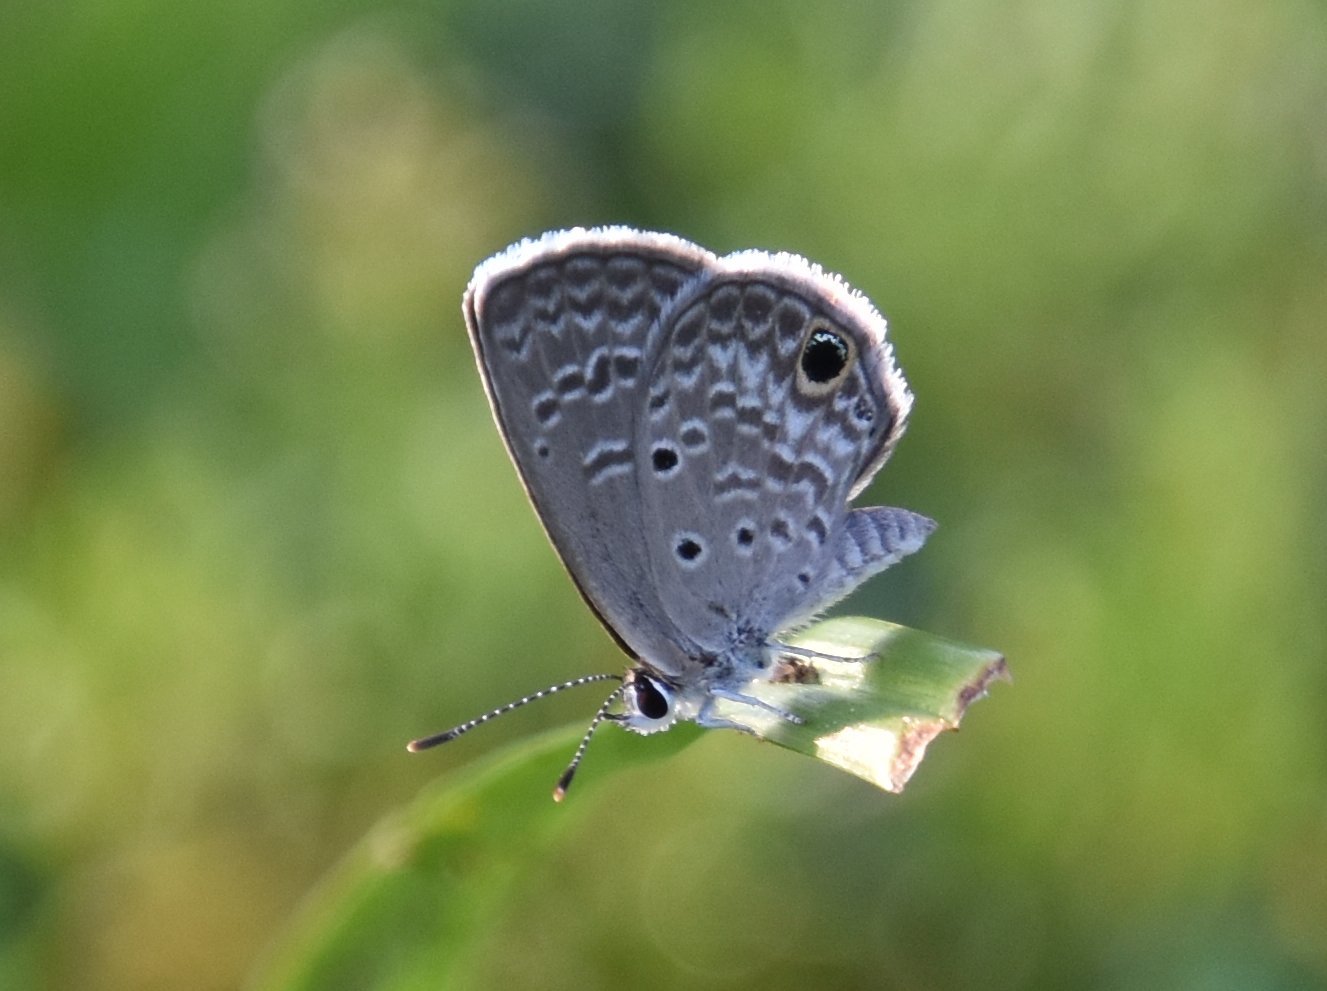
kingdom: Animalia
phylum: Arthropoda
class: Insecta
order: Lepidoptera
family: Lycaenidae
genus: Hemiargus
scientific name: Hemiargus ceraunus
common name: Ceraunus blue
